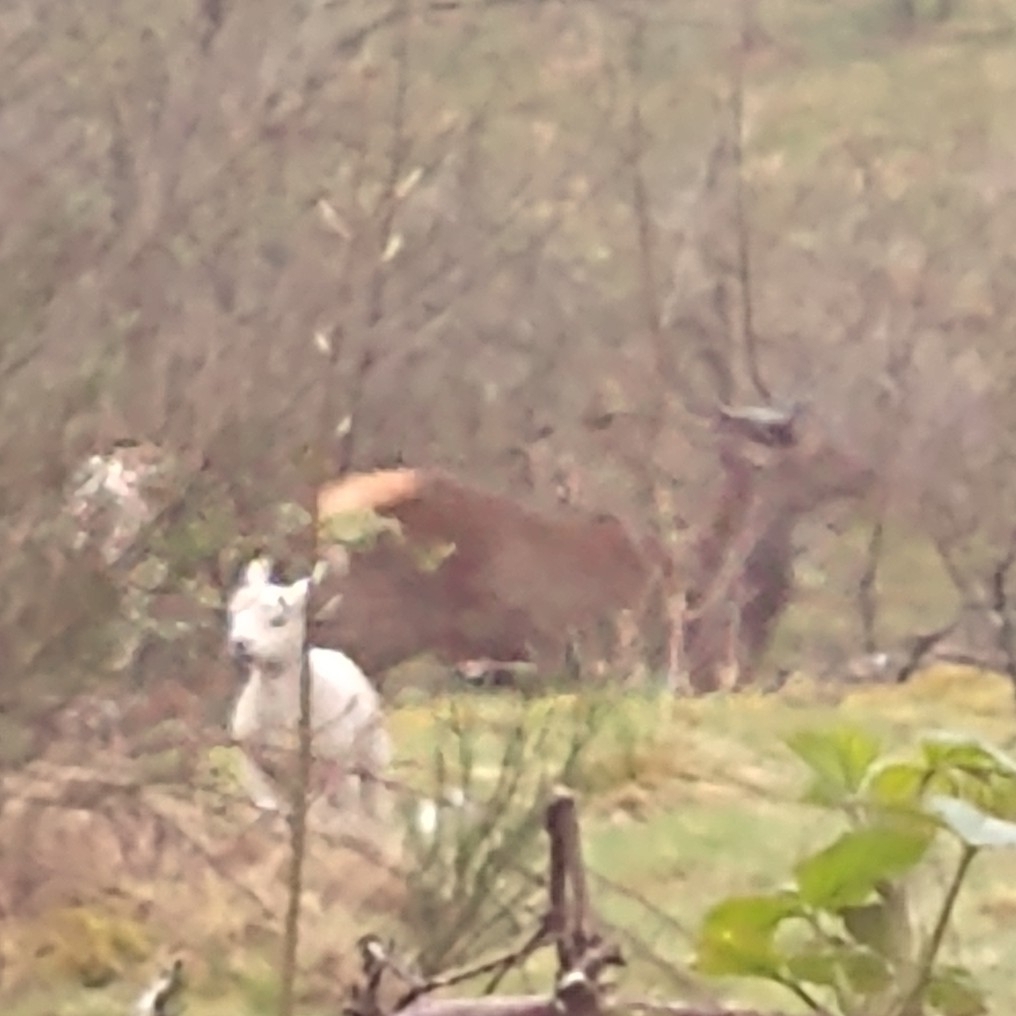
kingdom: Animalia
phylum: Chordata
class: Mammalia
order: Artiodactyla
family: Cervidae
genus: Cervus
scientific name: Cervus elaphus
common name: Red deer
